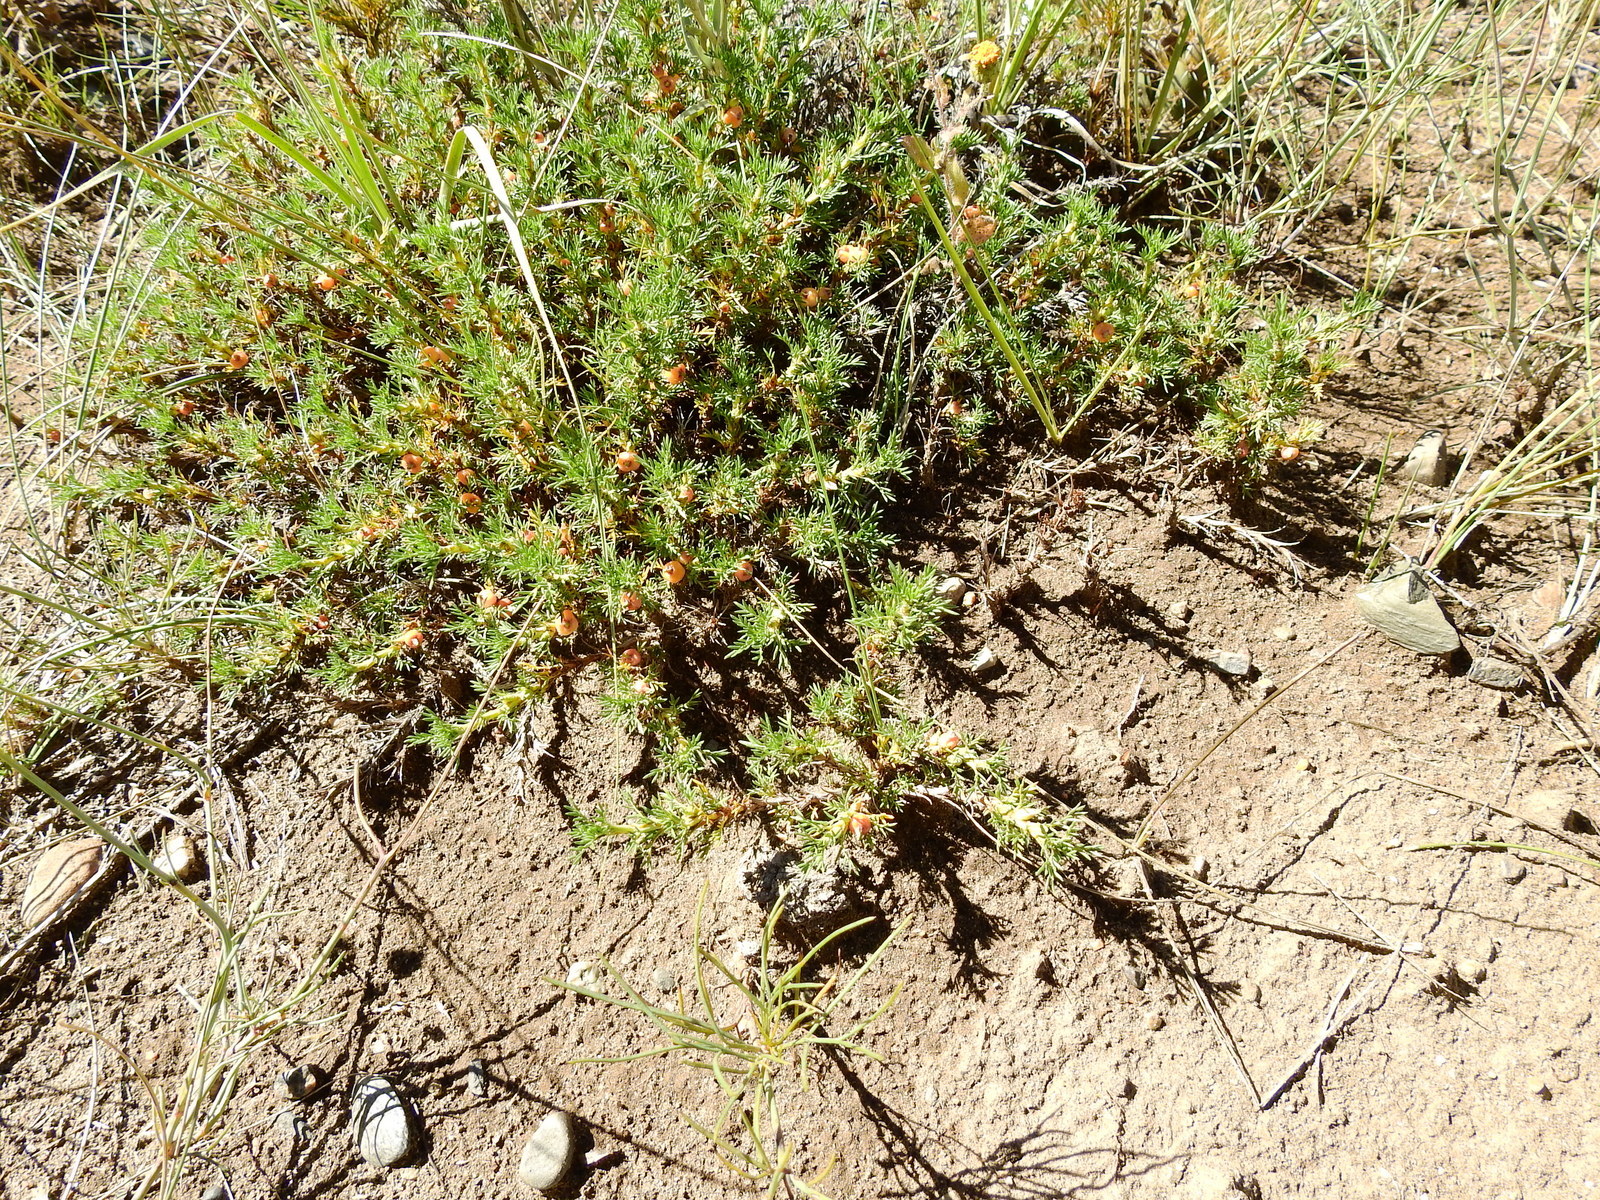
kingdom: Plantae
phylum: Tracheophyta
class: Magnoliopsida
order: Rosales
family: Rosaceae
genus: Margyricarpus
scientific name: Margyricarpus pinnatus
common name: Pearlfruit
